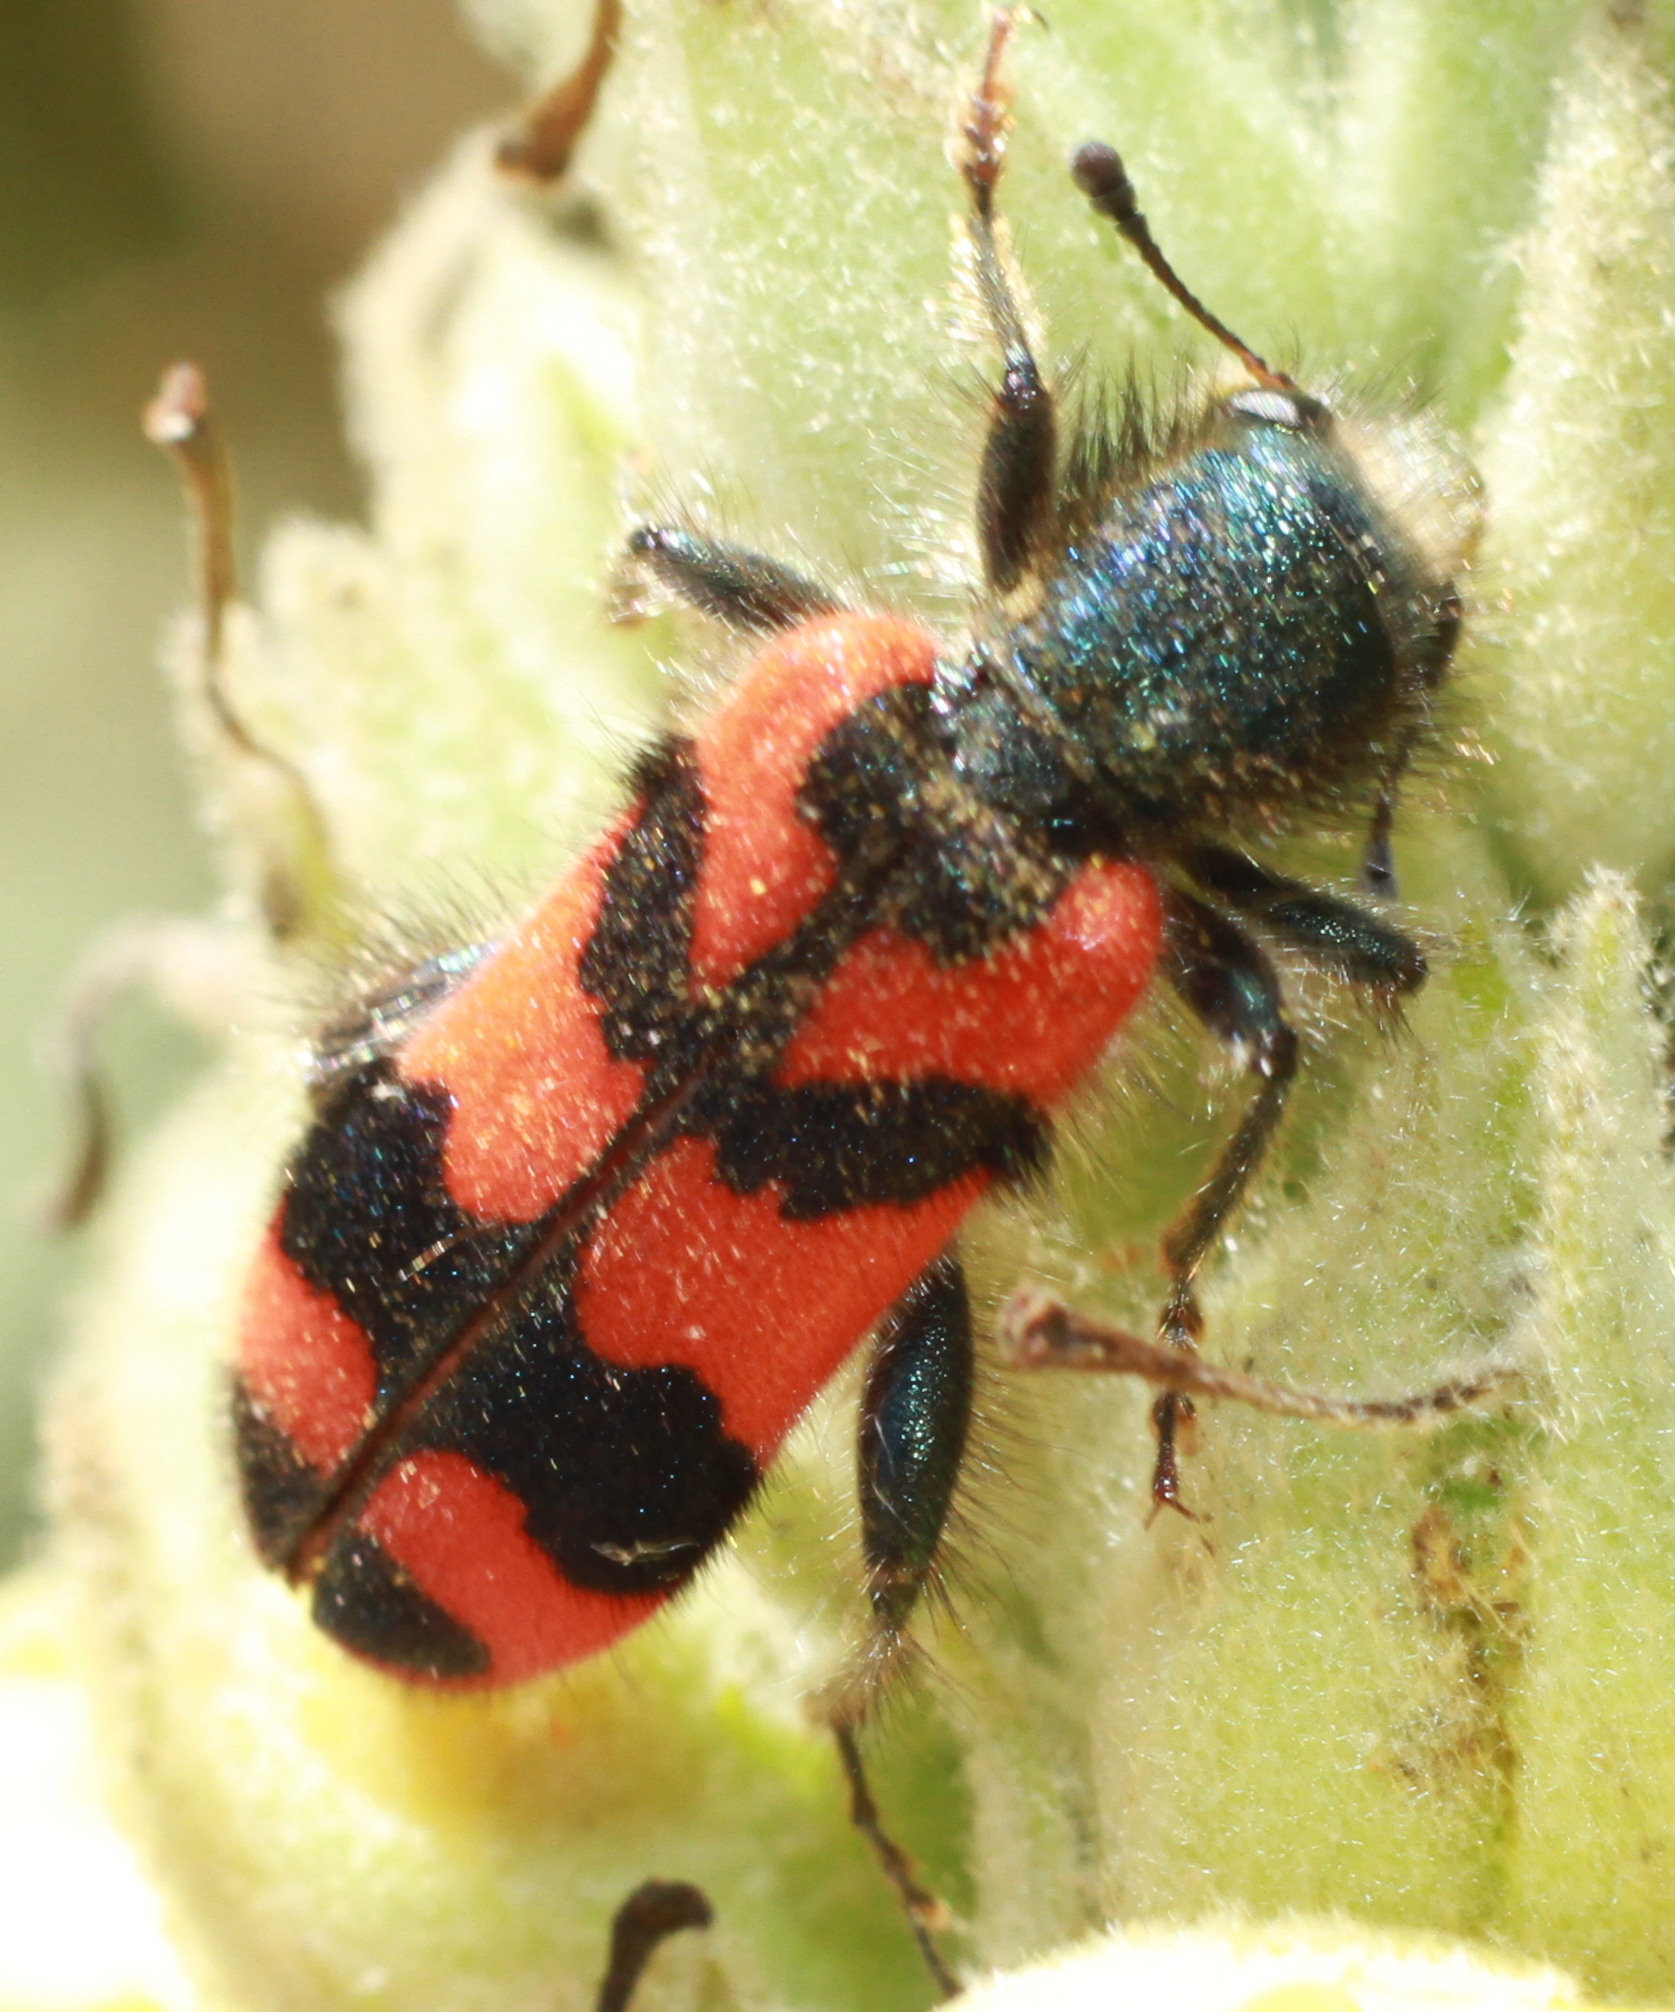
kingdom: Animalia
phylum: Arthropoda
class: Insecta
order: Coleoptera
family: Cleridae
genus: Trichodes
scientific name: Trichodes alvearius
